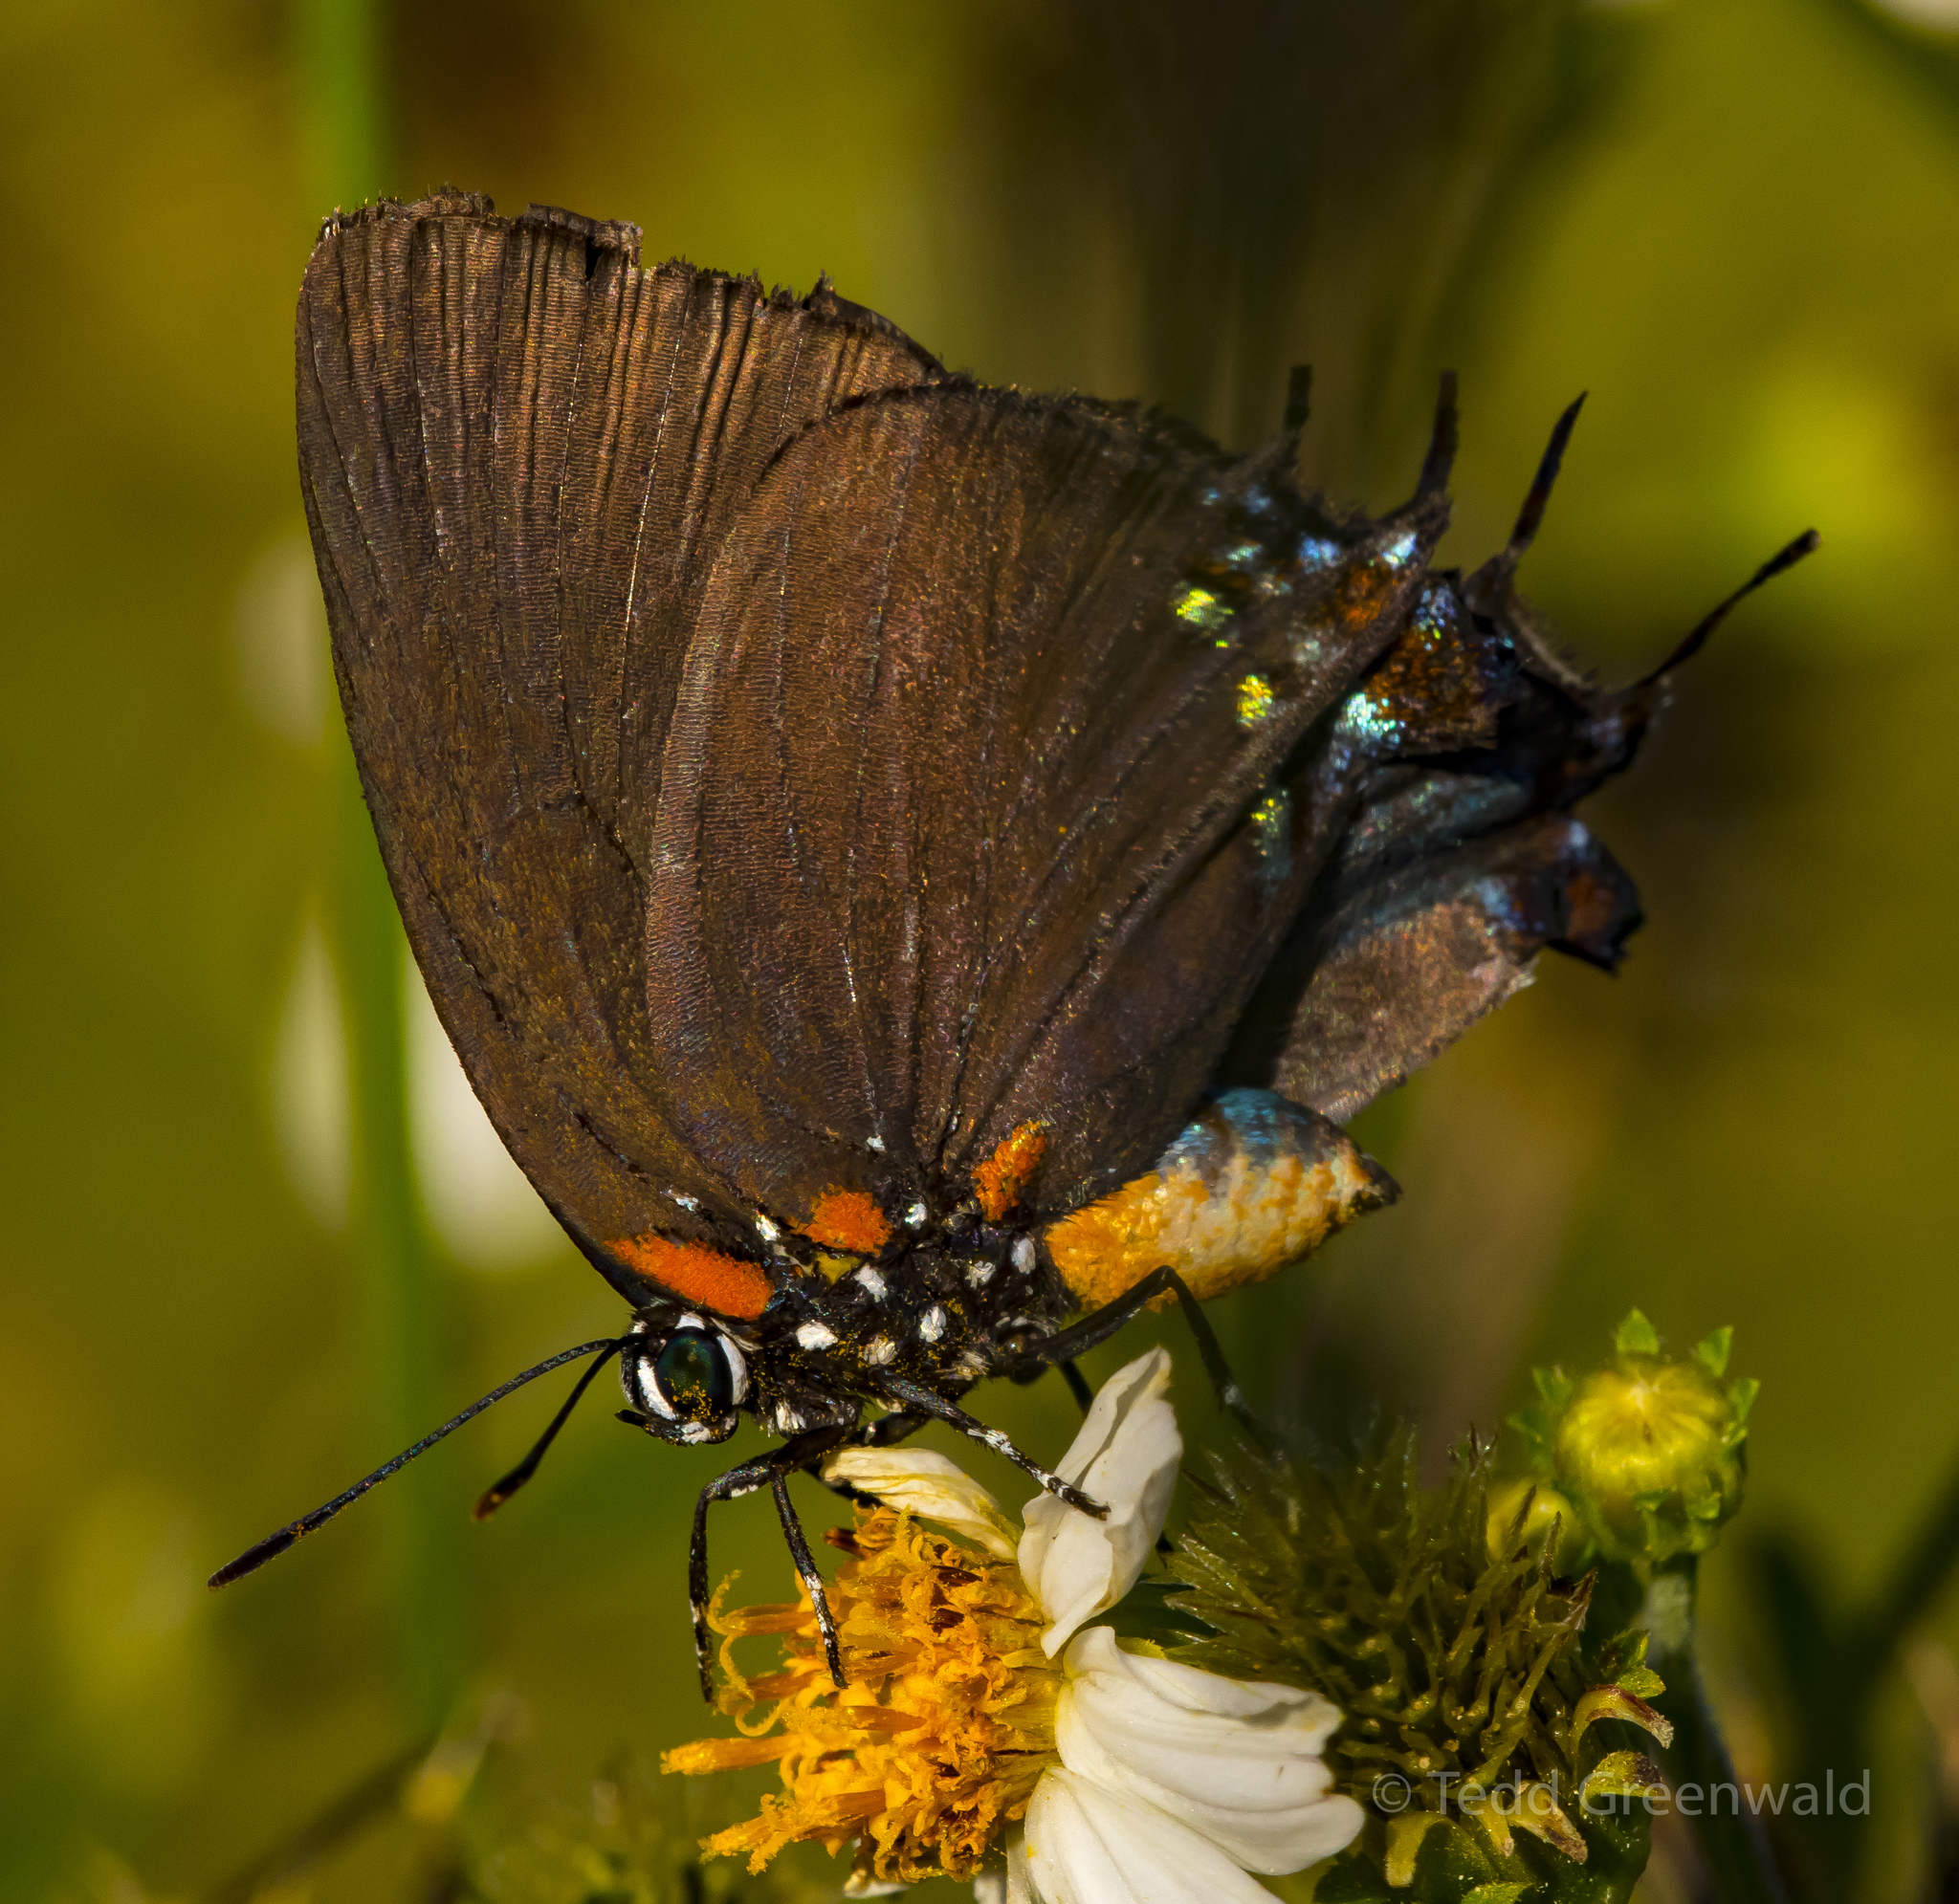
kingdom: Animalia
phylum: Arthropoda
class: Insecta
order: Lepidoptera
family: Lycaenidae
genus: Atlides
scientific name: Atlides halesus
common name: Great purple hairstreak
